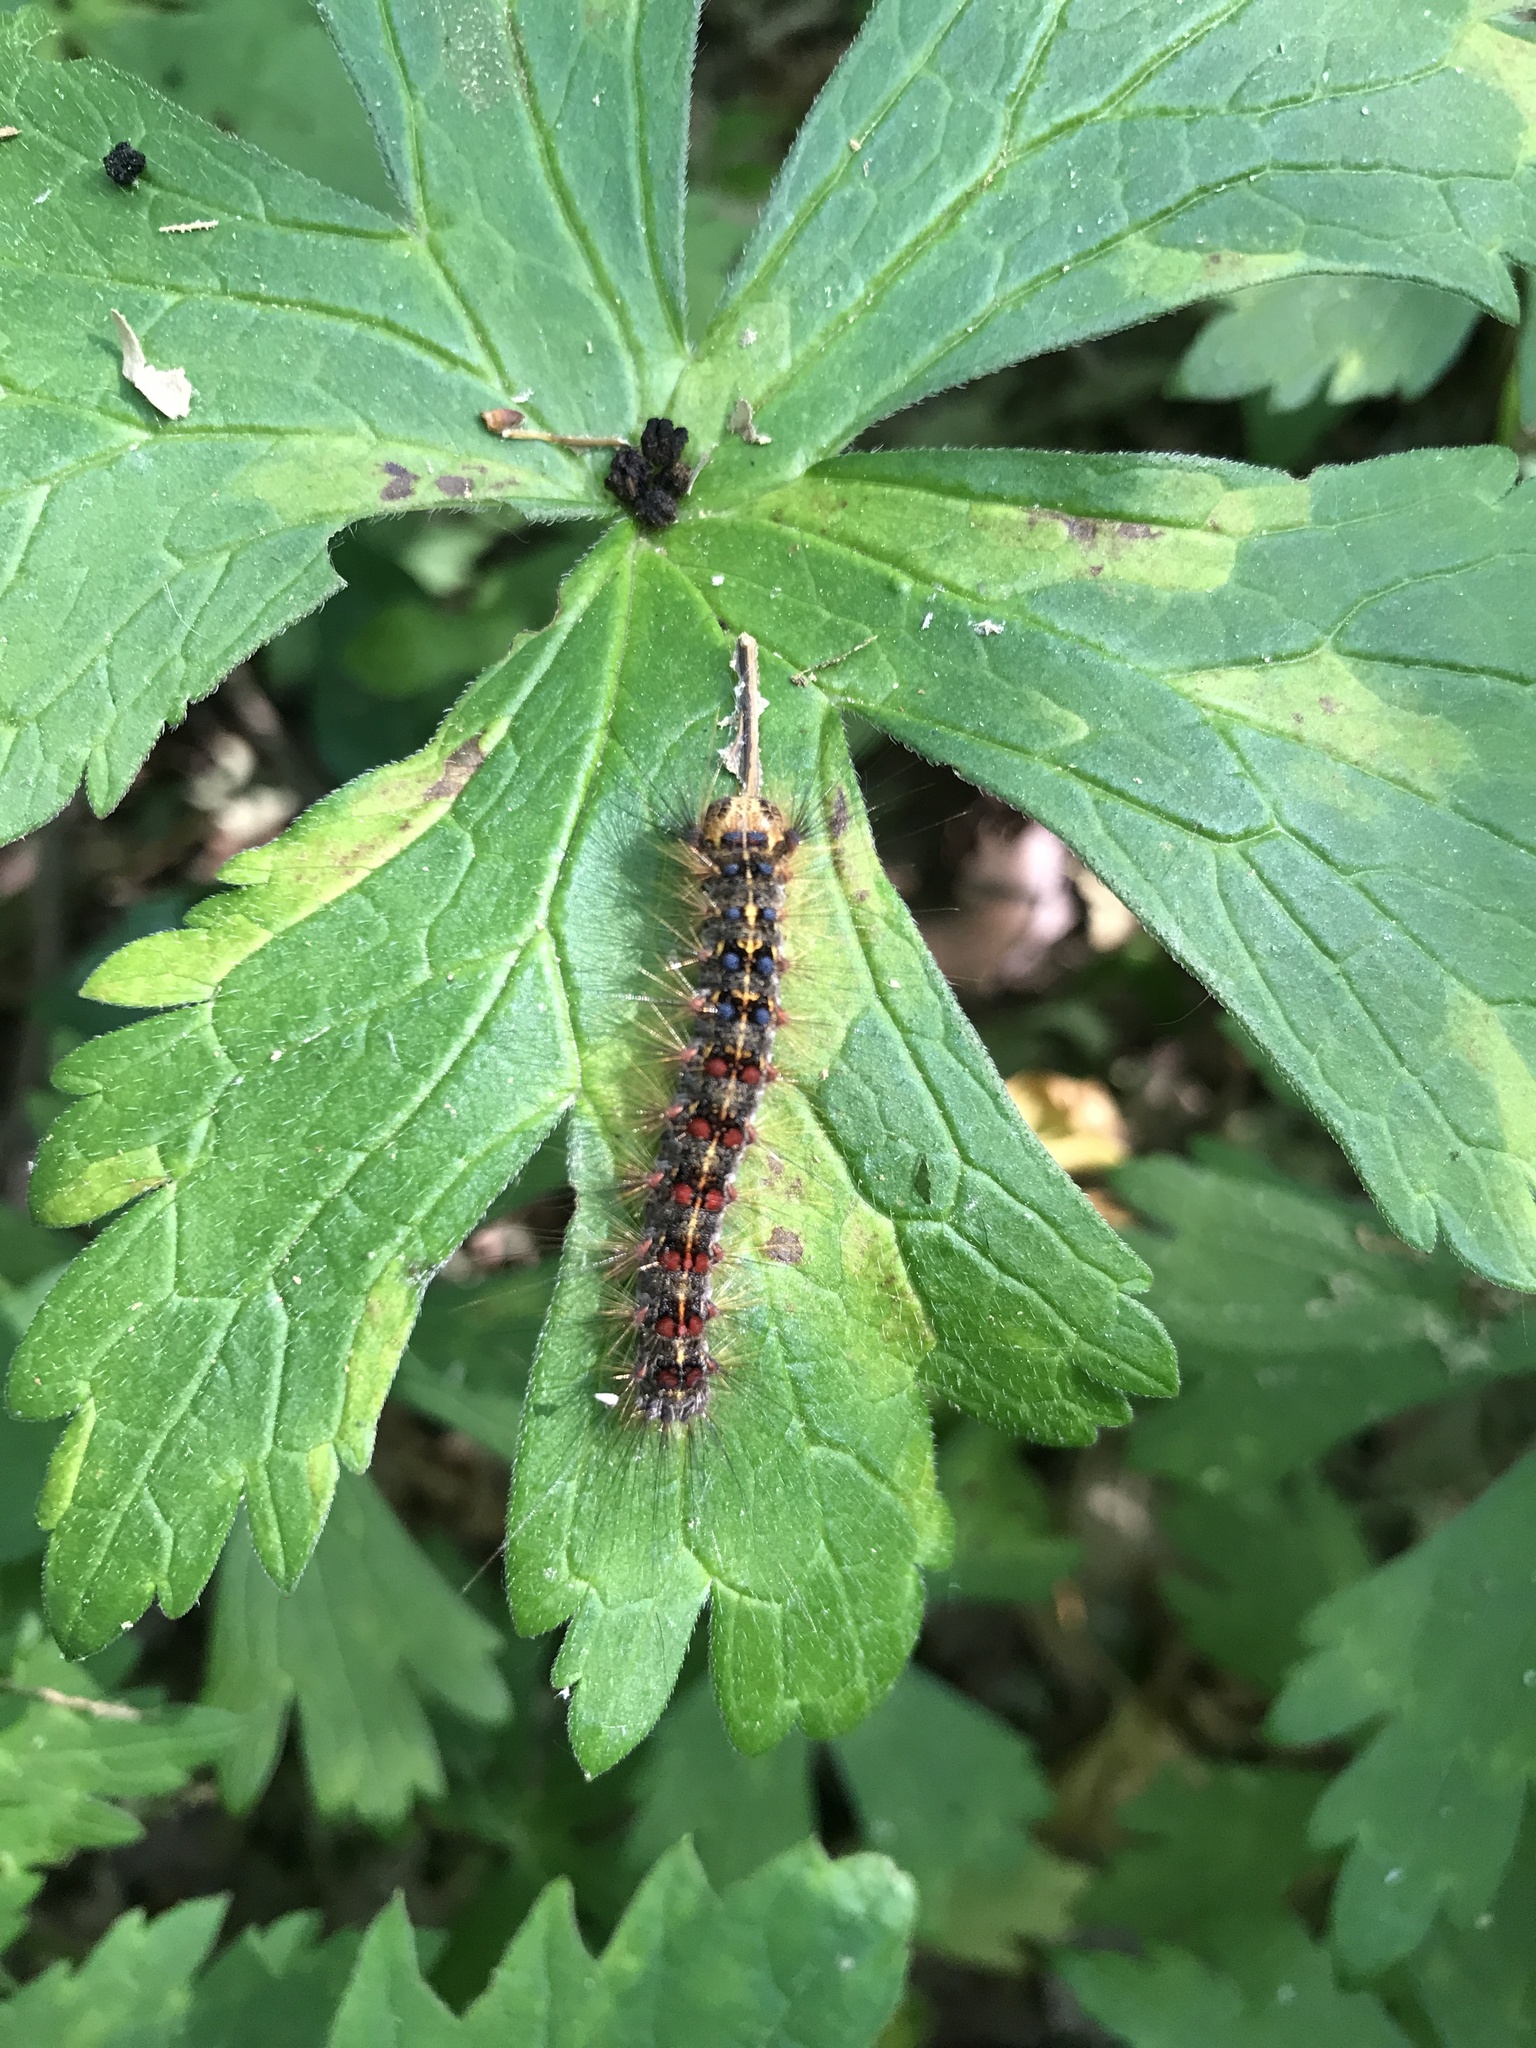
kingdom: Animalia
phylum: Arthropoda
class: Insecta
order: Lepidoptera
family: Erebidae
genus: Lymantria
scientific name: Lymantria dispar
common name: Gypsy moth
